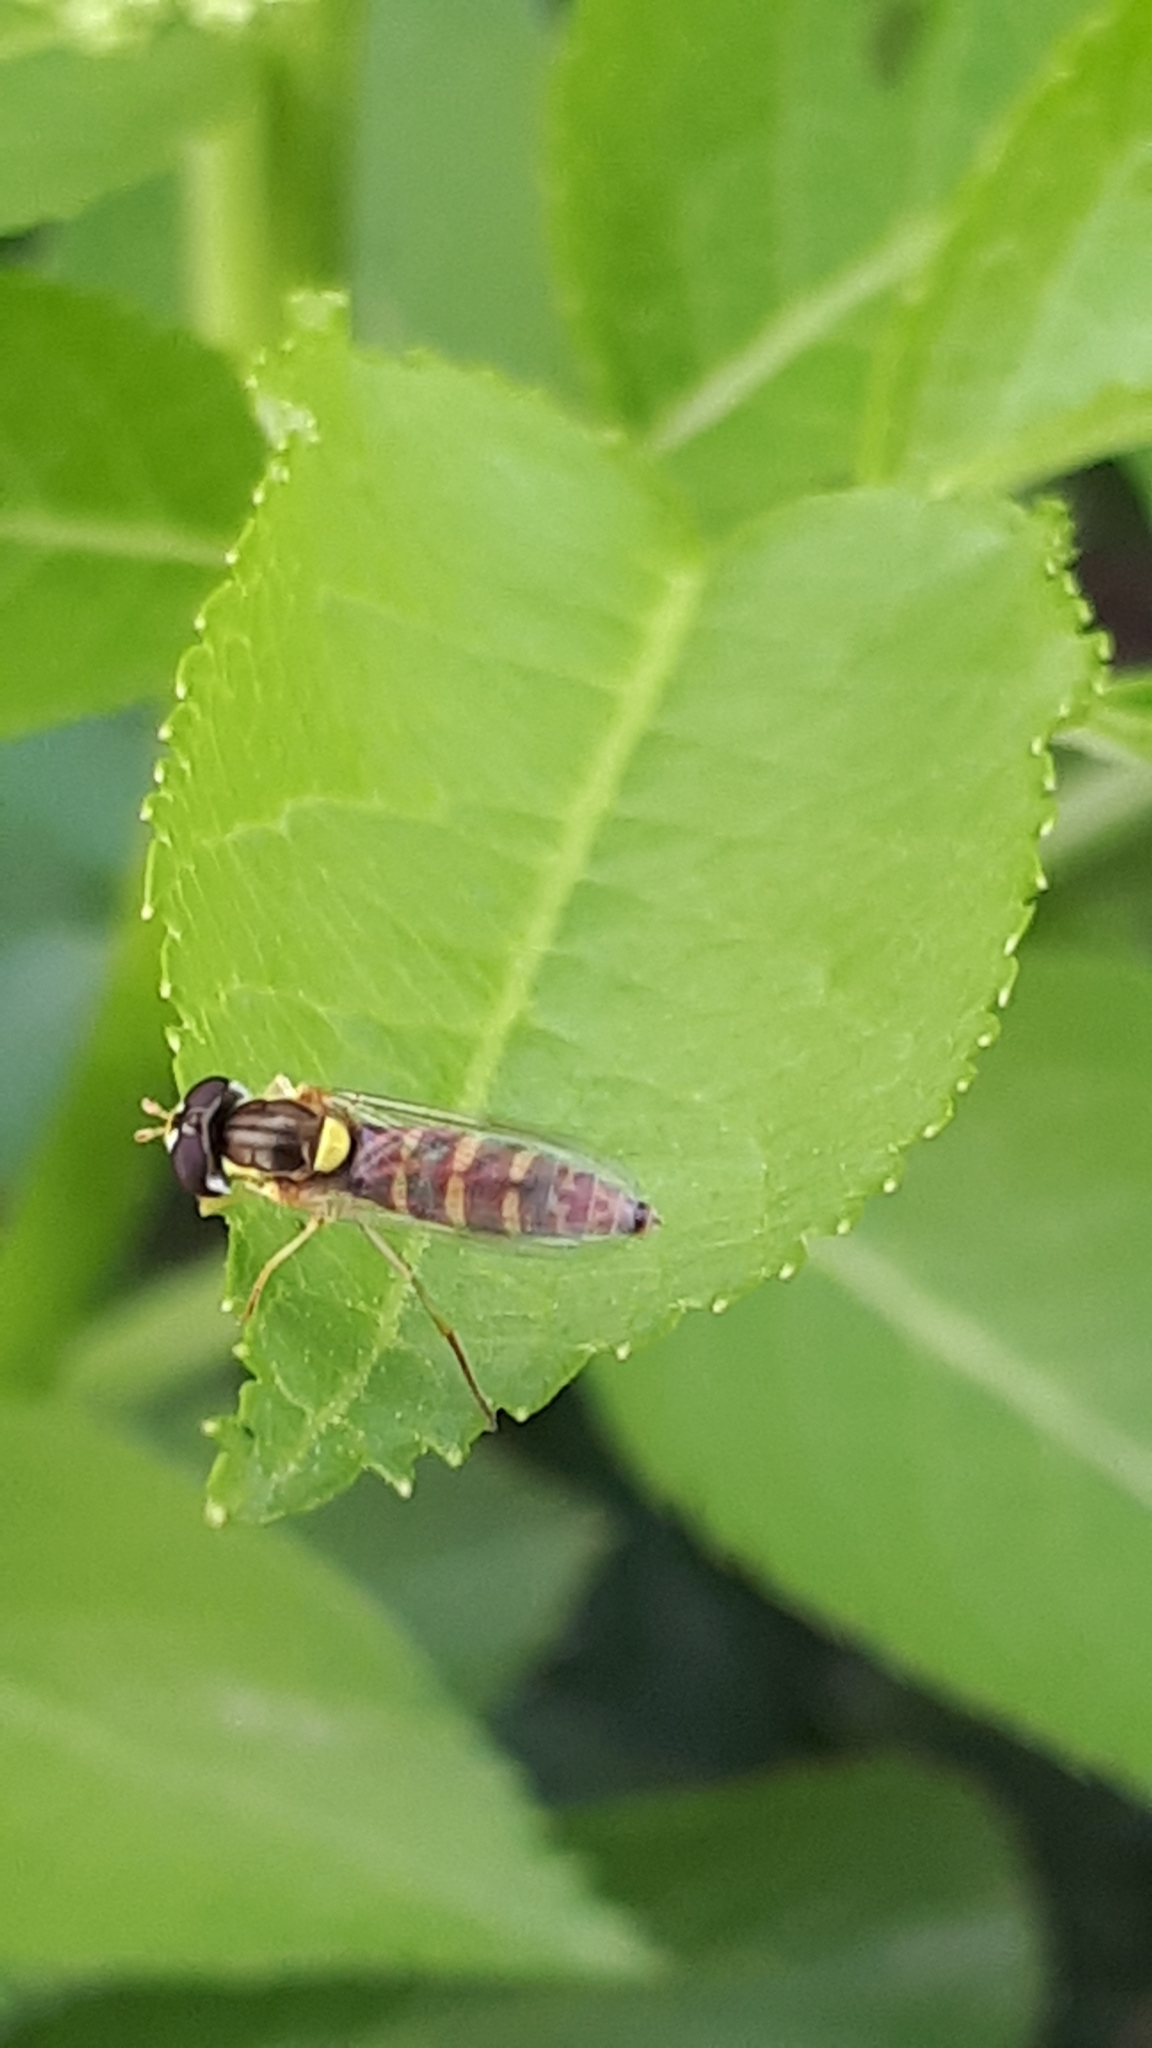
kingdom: Animalia
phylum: Arthropoda
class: Insecta
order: Diptera
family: Syrphidae
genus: Sphaerophoria
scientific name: Sphaerophoria
